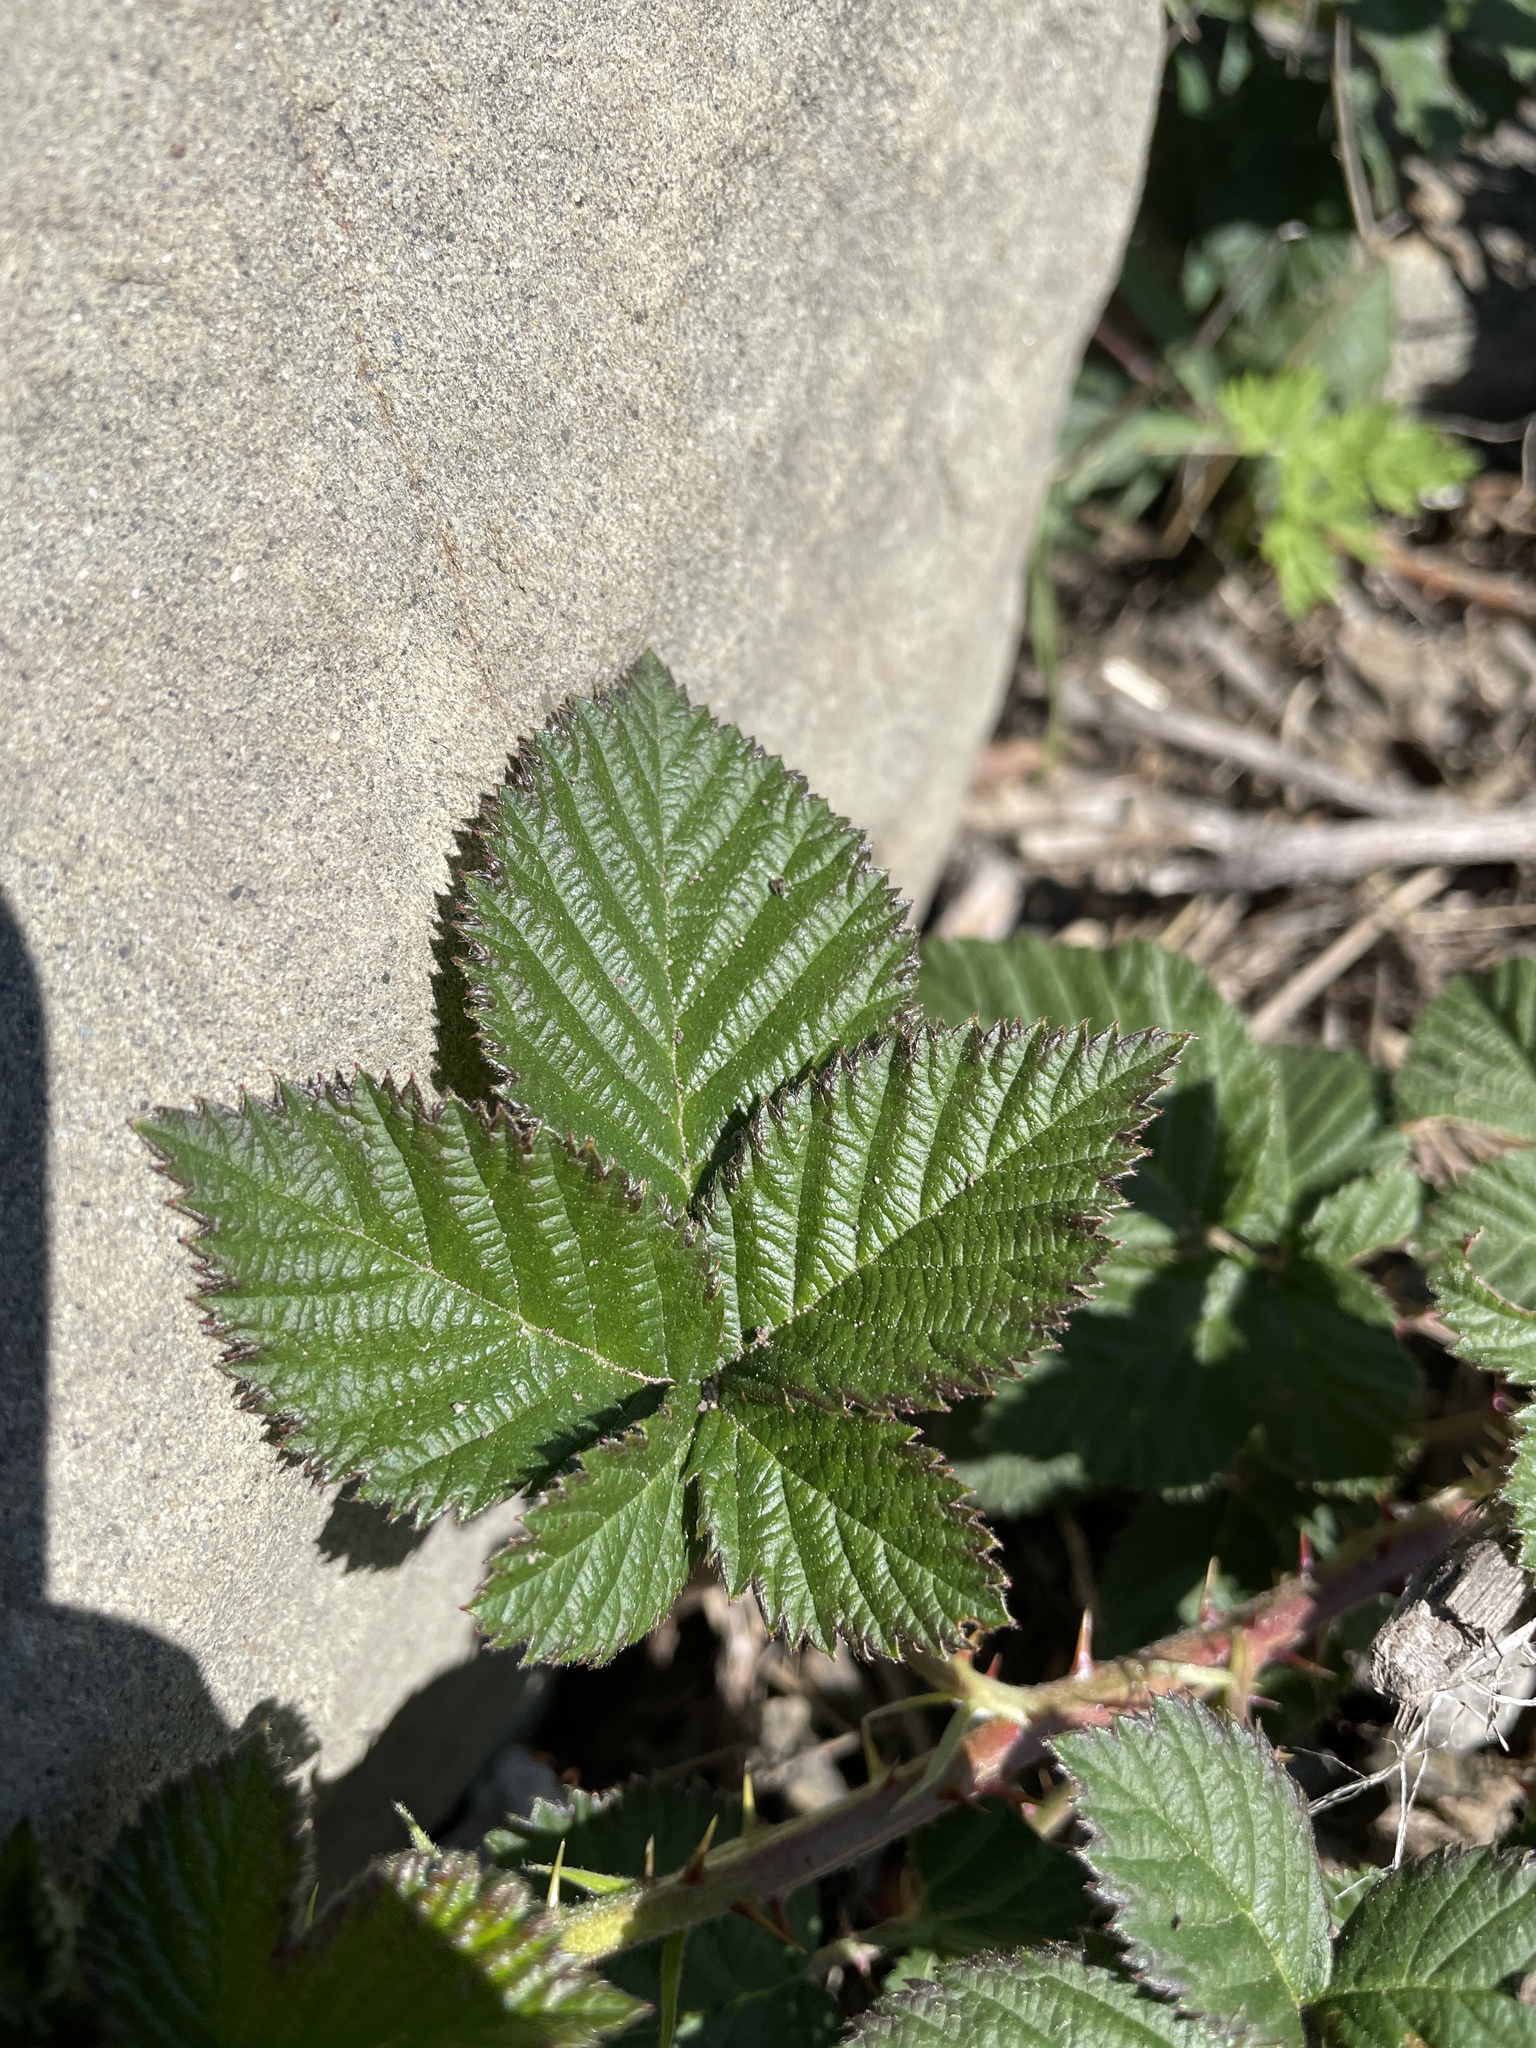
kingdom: Plantae
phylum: Tracheophyta
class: Magnoliopsida
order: Rosales
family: Rosaceae
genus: Rubus
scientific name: Rubus armeniacus
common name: Himalayan blackberry
